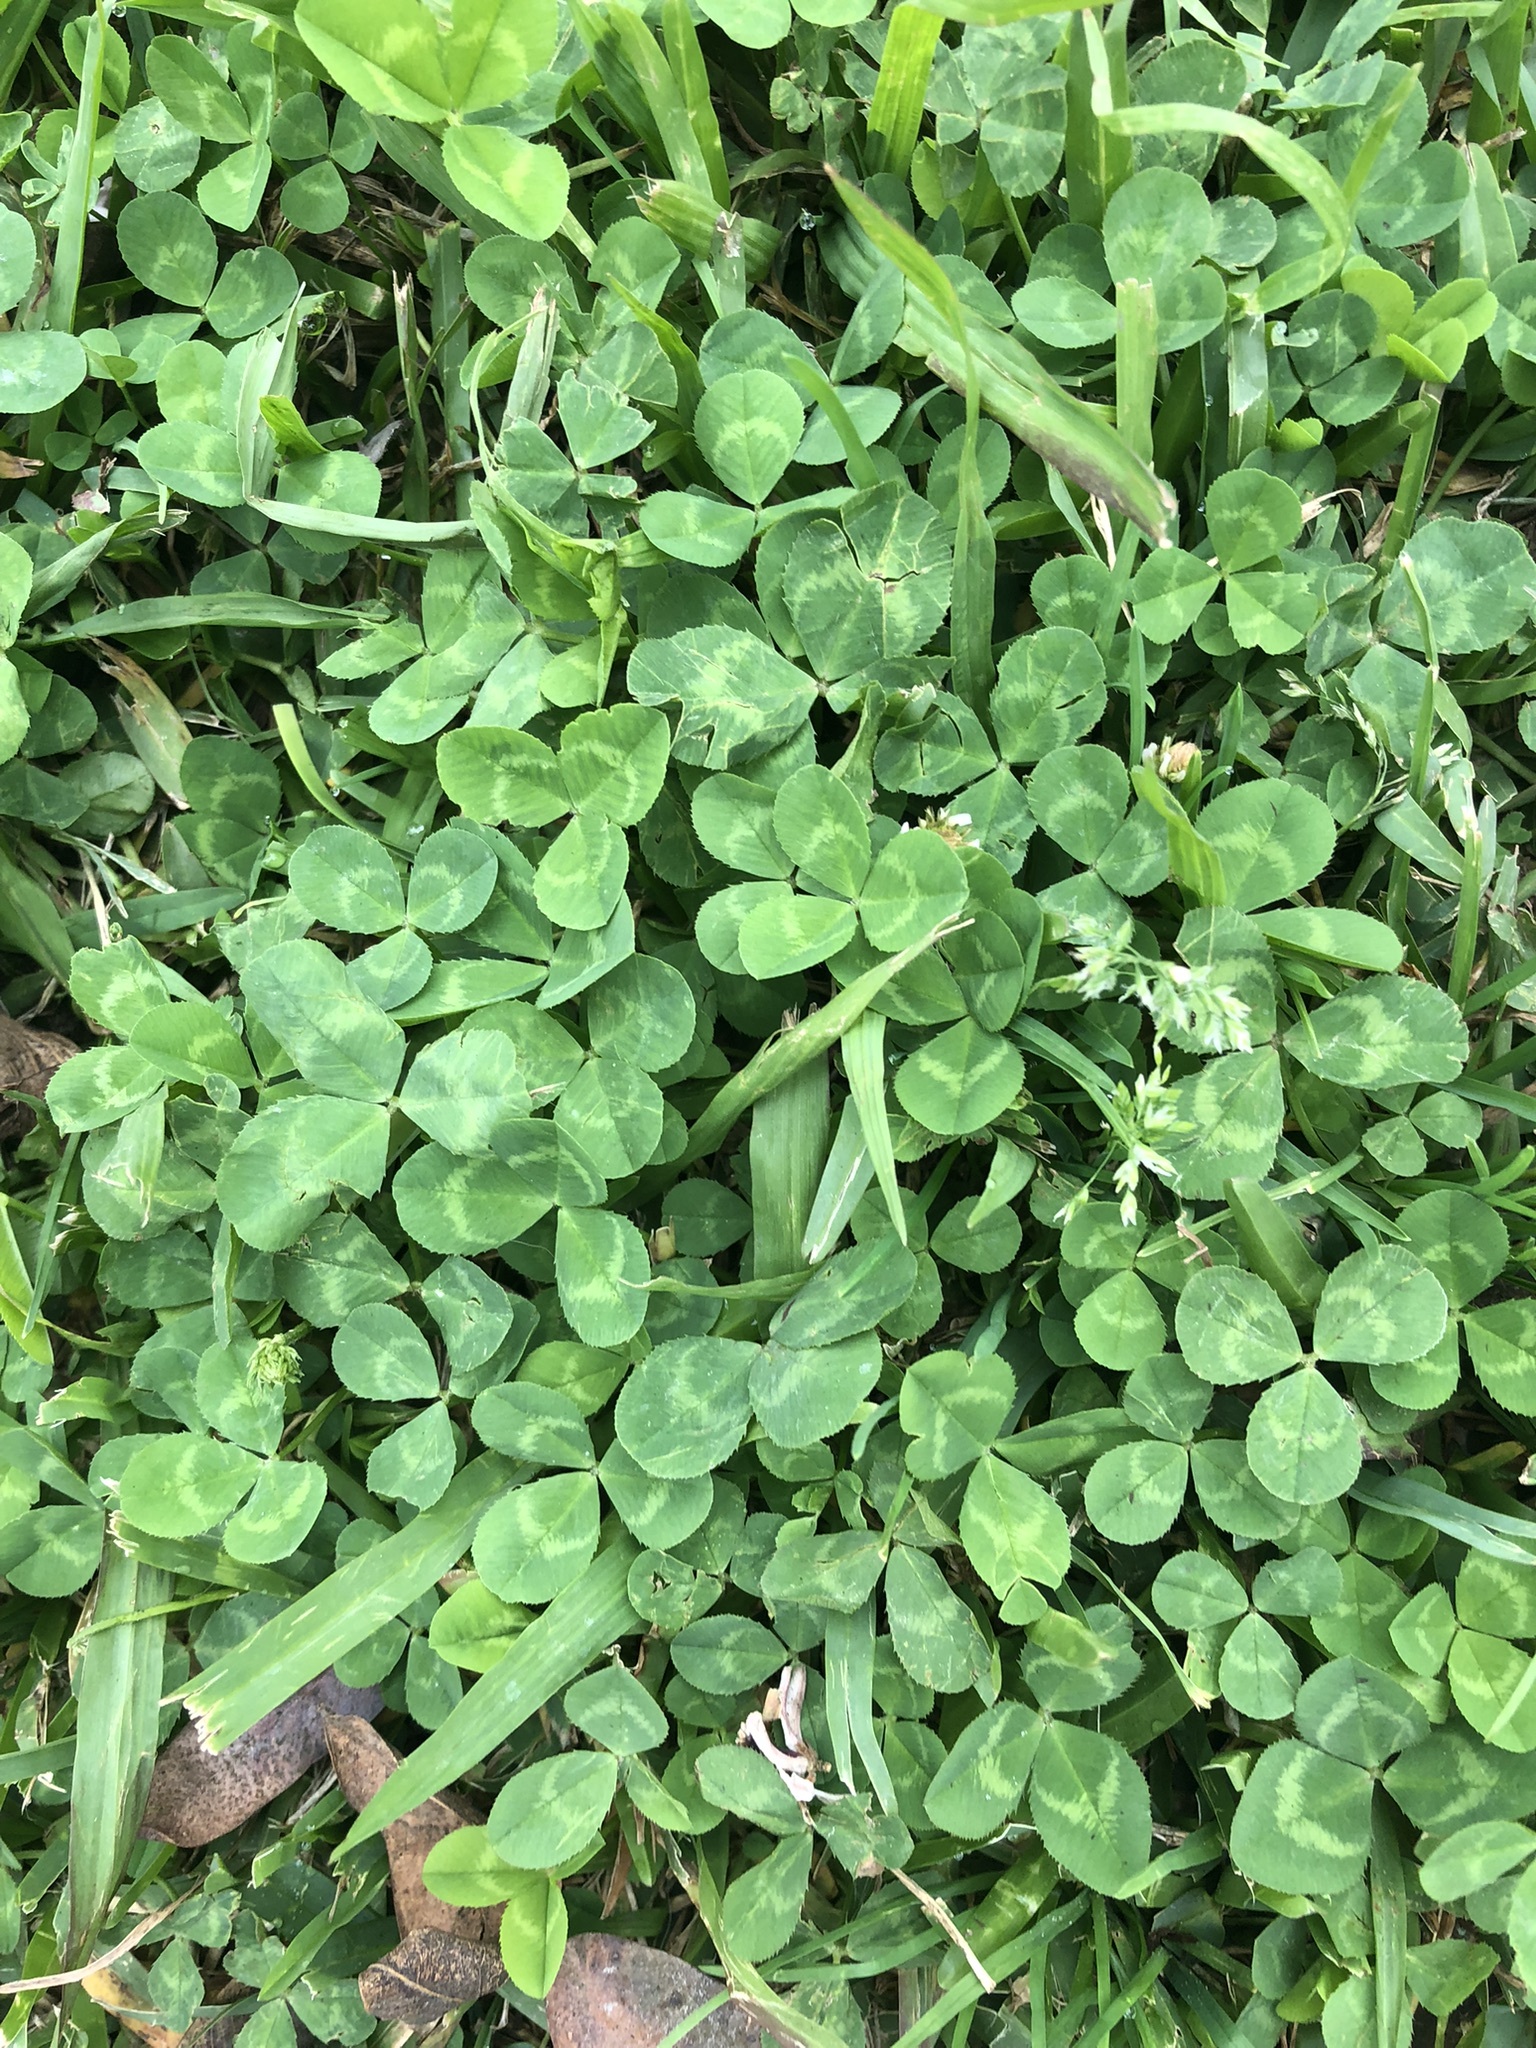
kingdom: Plantae
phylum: Tracheophyta
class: Magnoliopsida
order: Fabales
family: Fabaceae
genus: Trifolium
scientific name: Trifolium repens
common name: White clover
